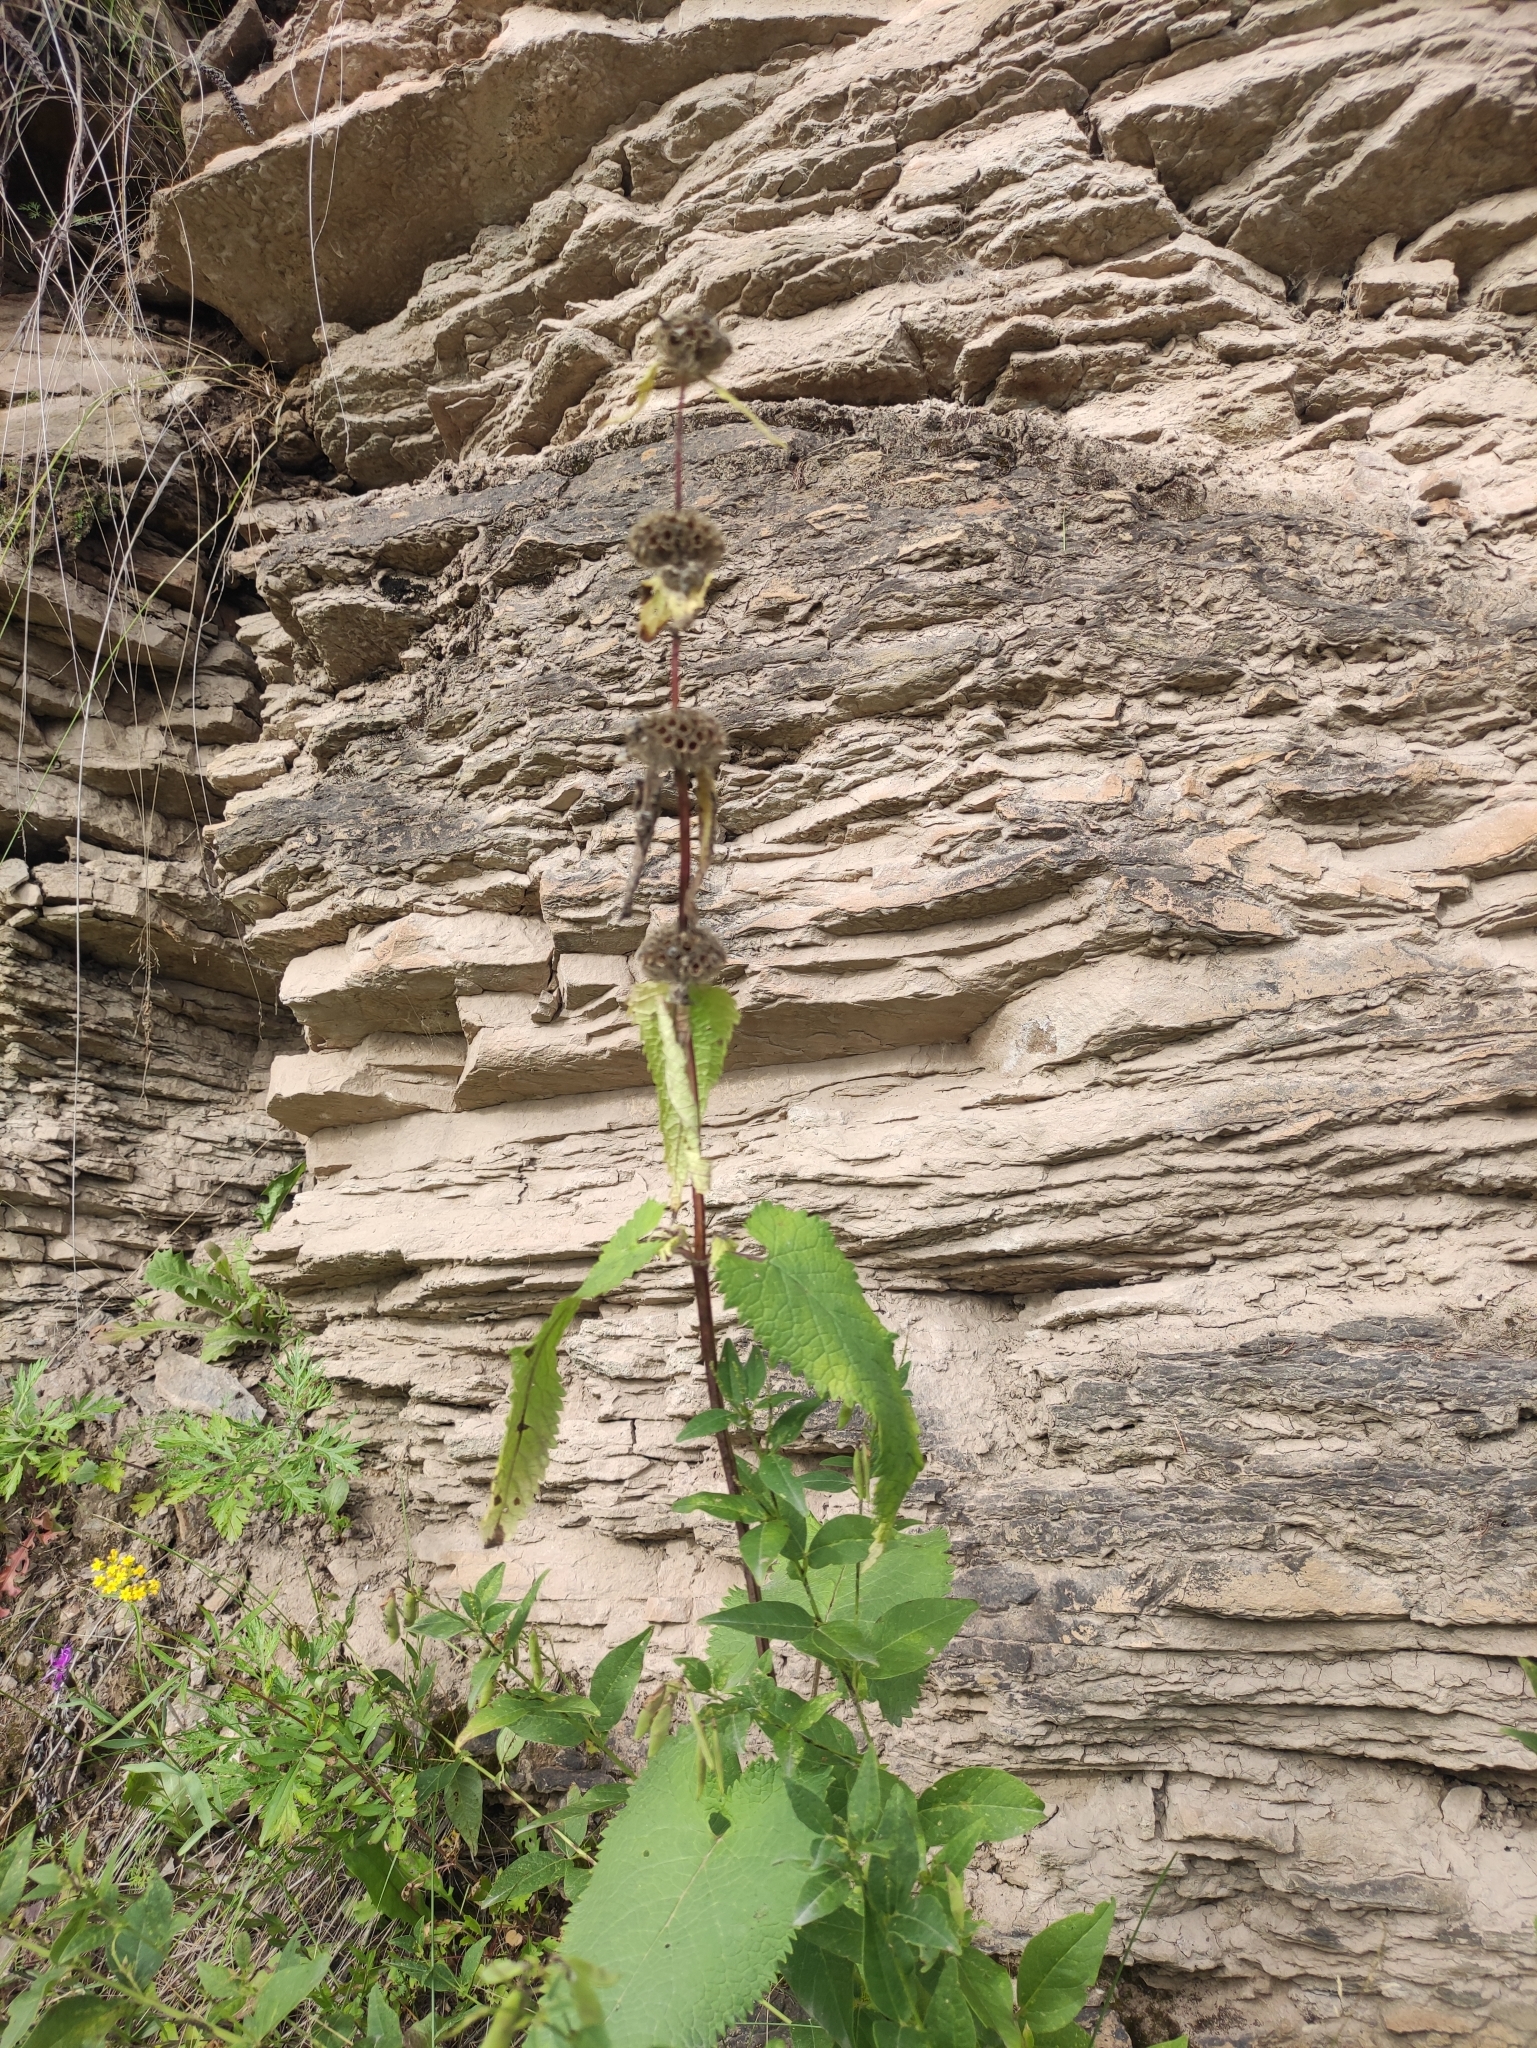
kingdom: Plantae
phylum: Tracheophyta
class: Magnoliopsida
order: Lamiales
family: Lamiaceae
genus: Phlomoides
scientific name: Phlomoides tuberosa
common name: Tuberous jerusalem sage
